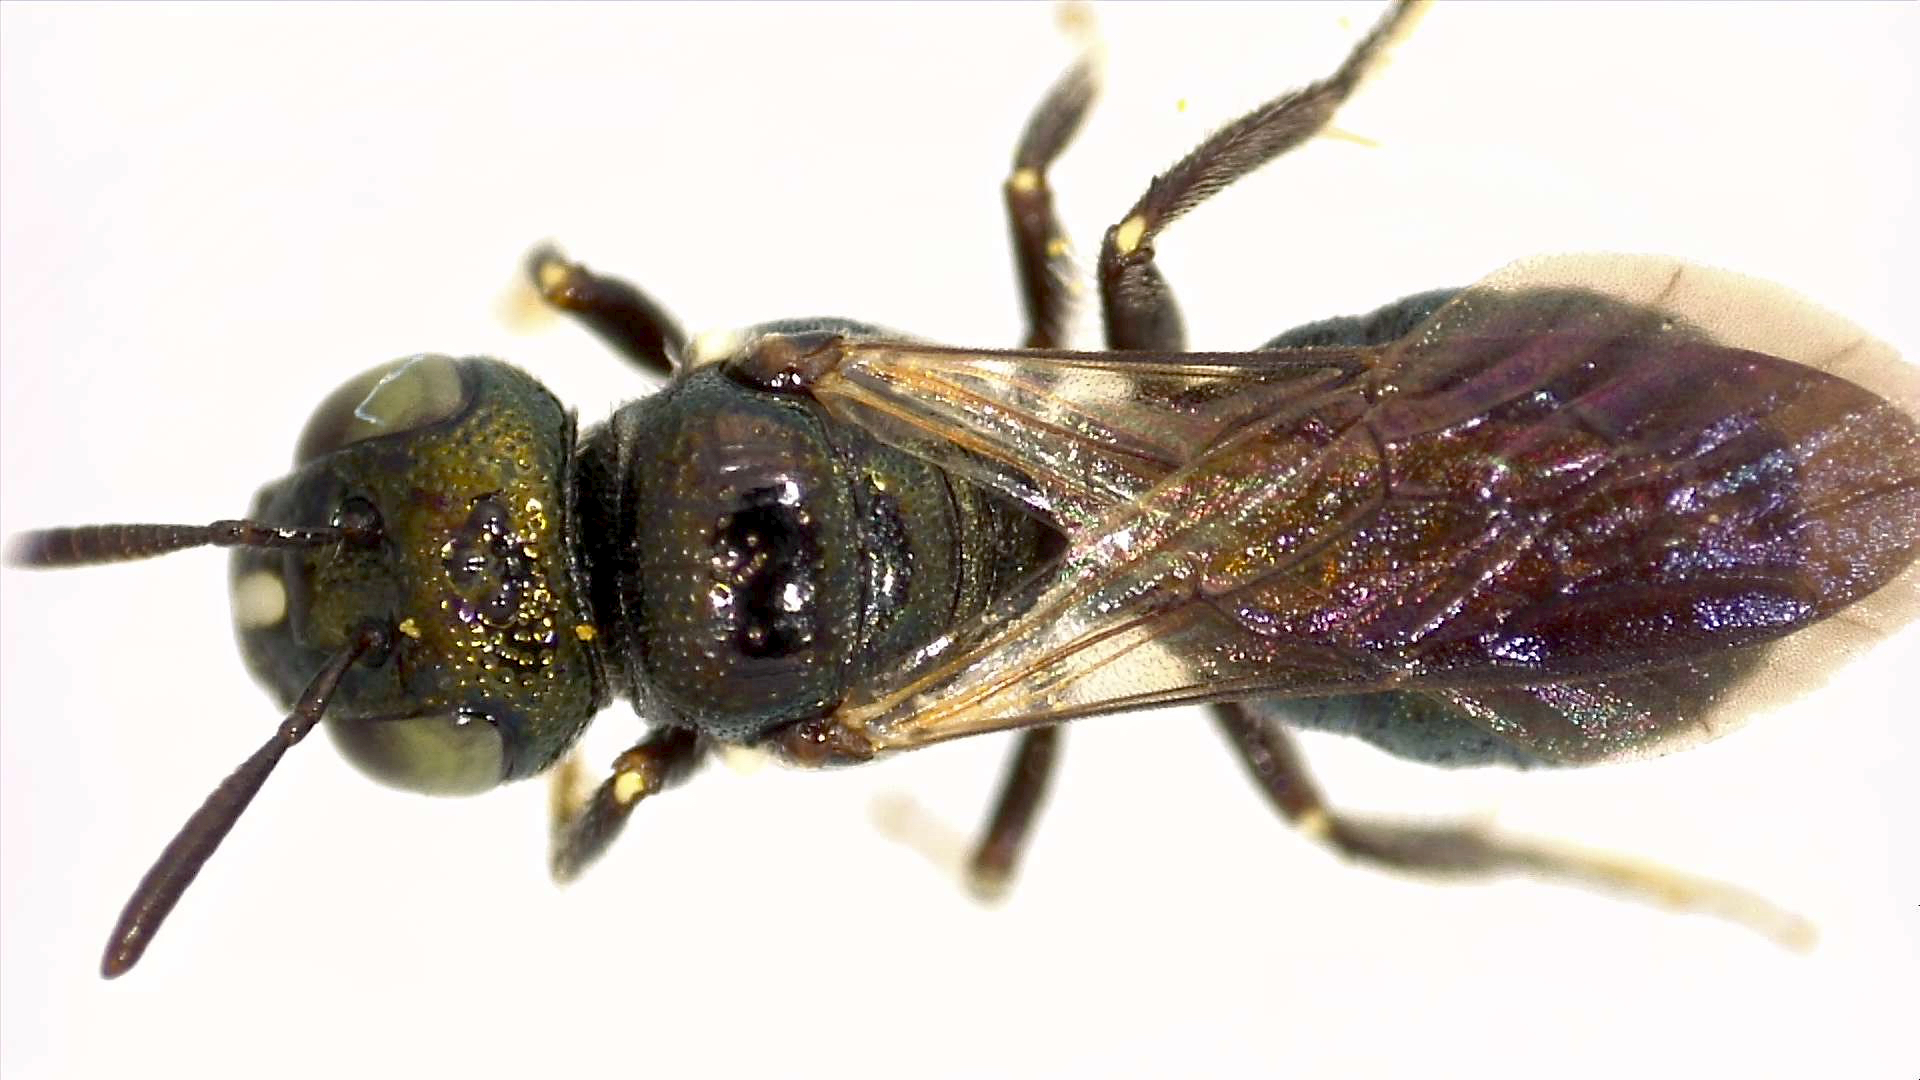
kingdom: Animalia
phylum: Arthropoda
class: Insecta
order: Hymenoptera
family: Apidae
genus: Ceratina
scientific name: Ceratina melanoptera
